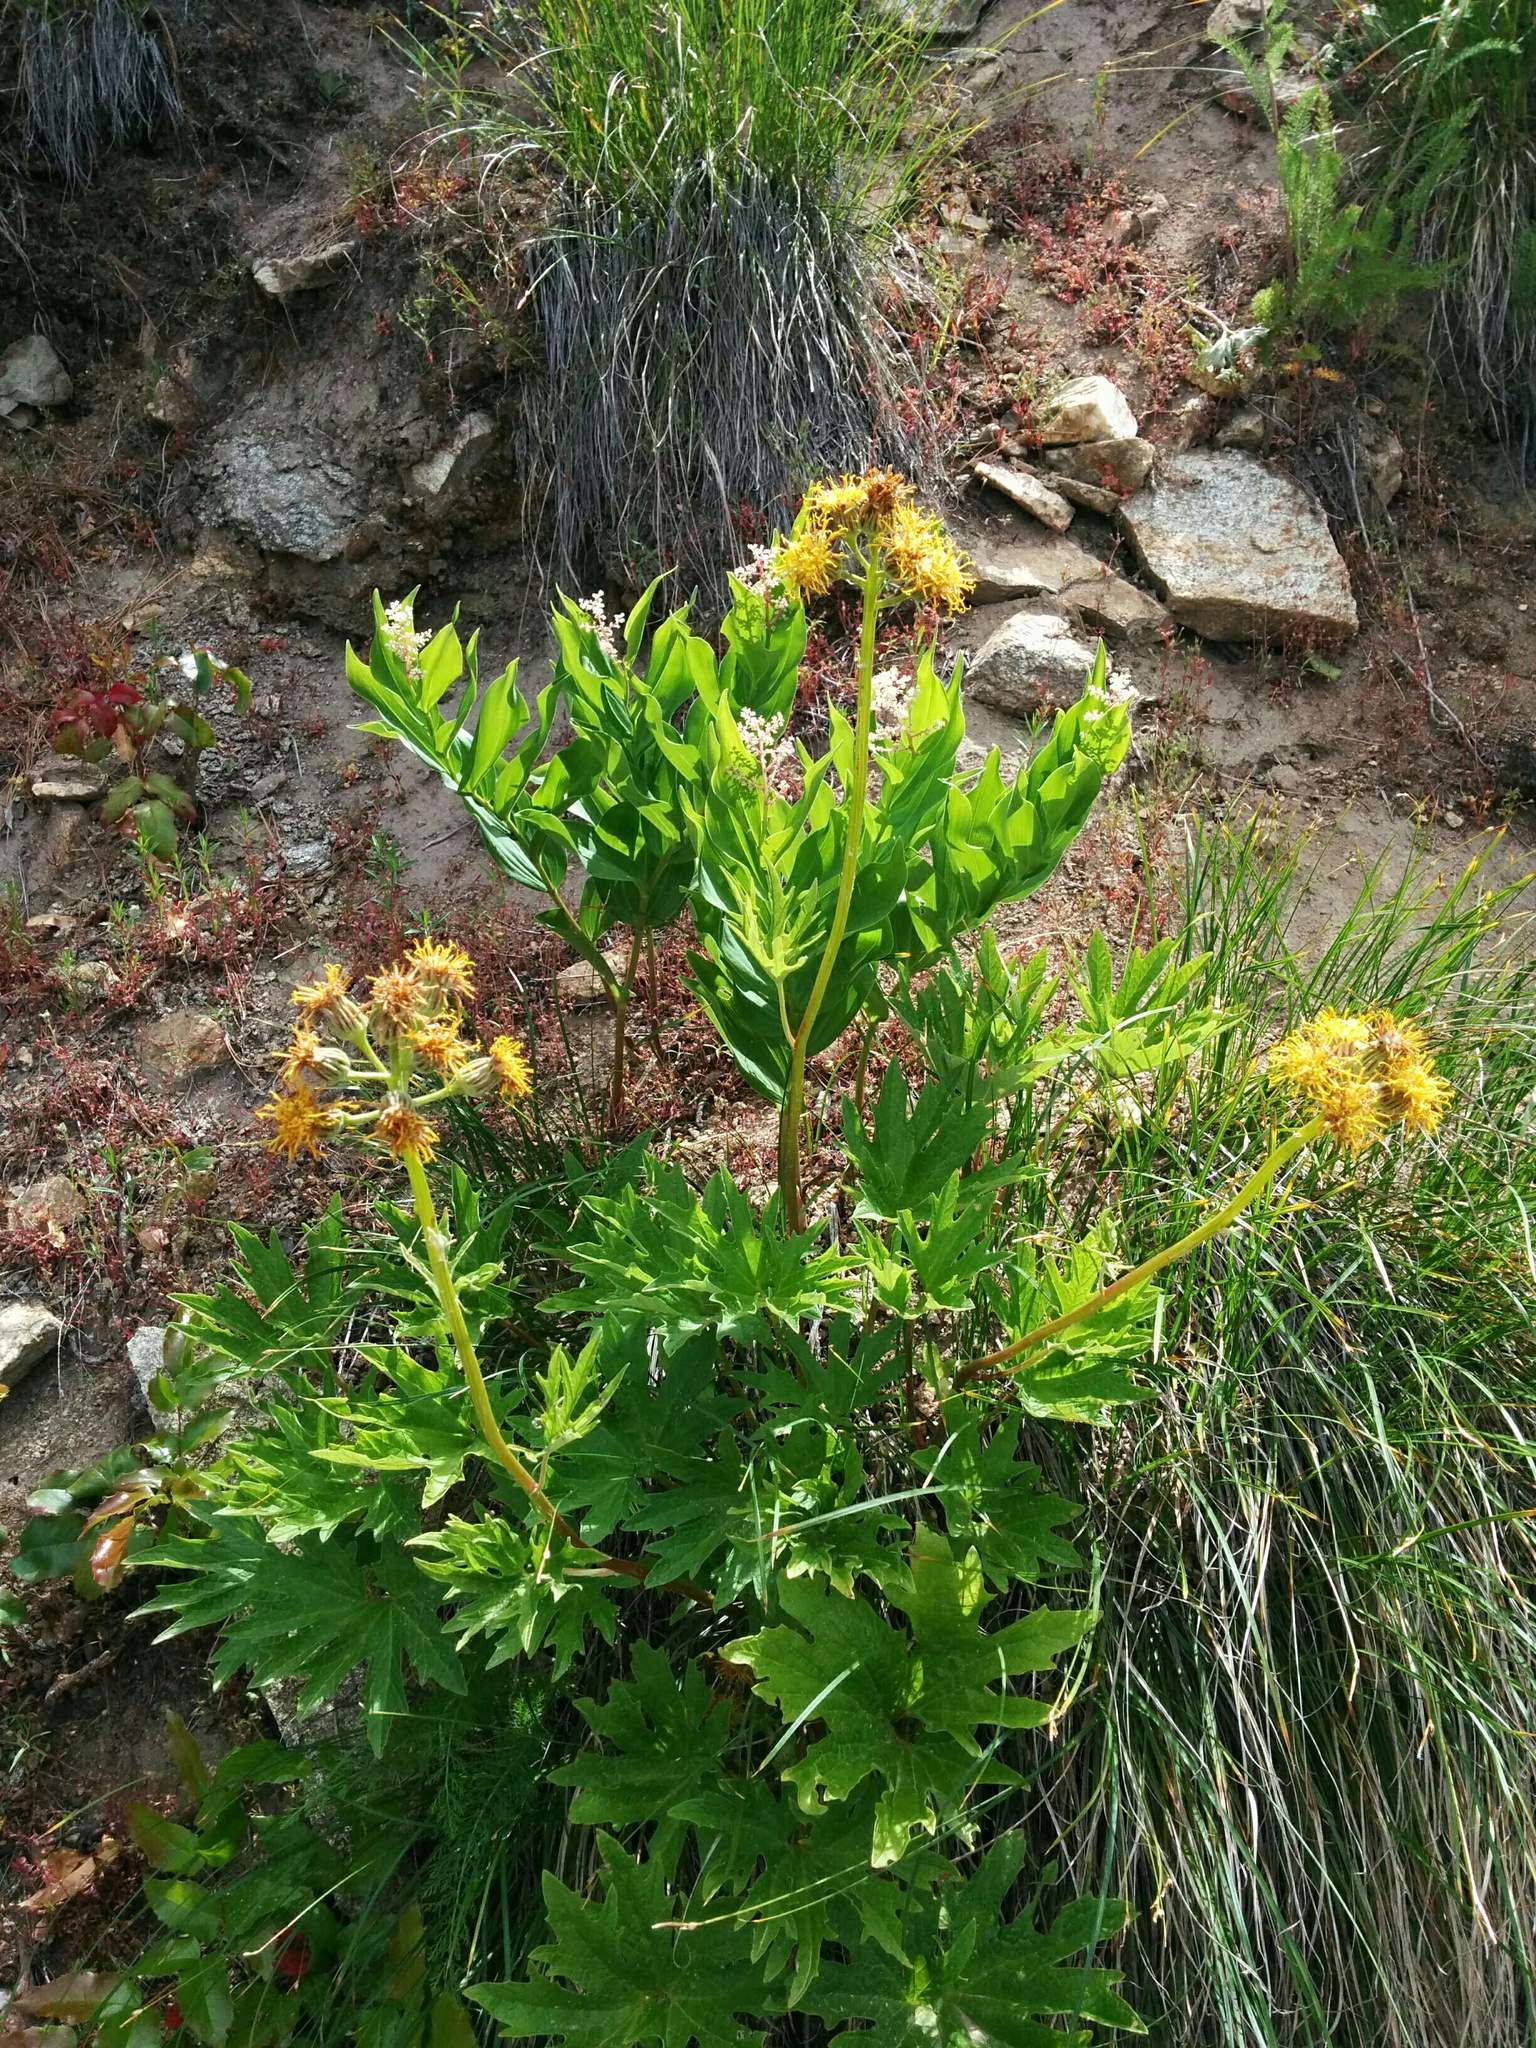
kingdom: Plantae
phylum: Tracheophyta
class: Magnoliopsida
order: Asterales
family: Asteraceae
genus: Cacaliopsis
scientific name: Cacaliopsis nardosmia
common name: Silvercrown
